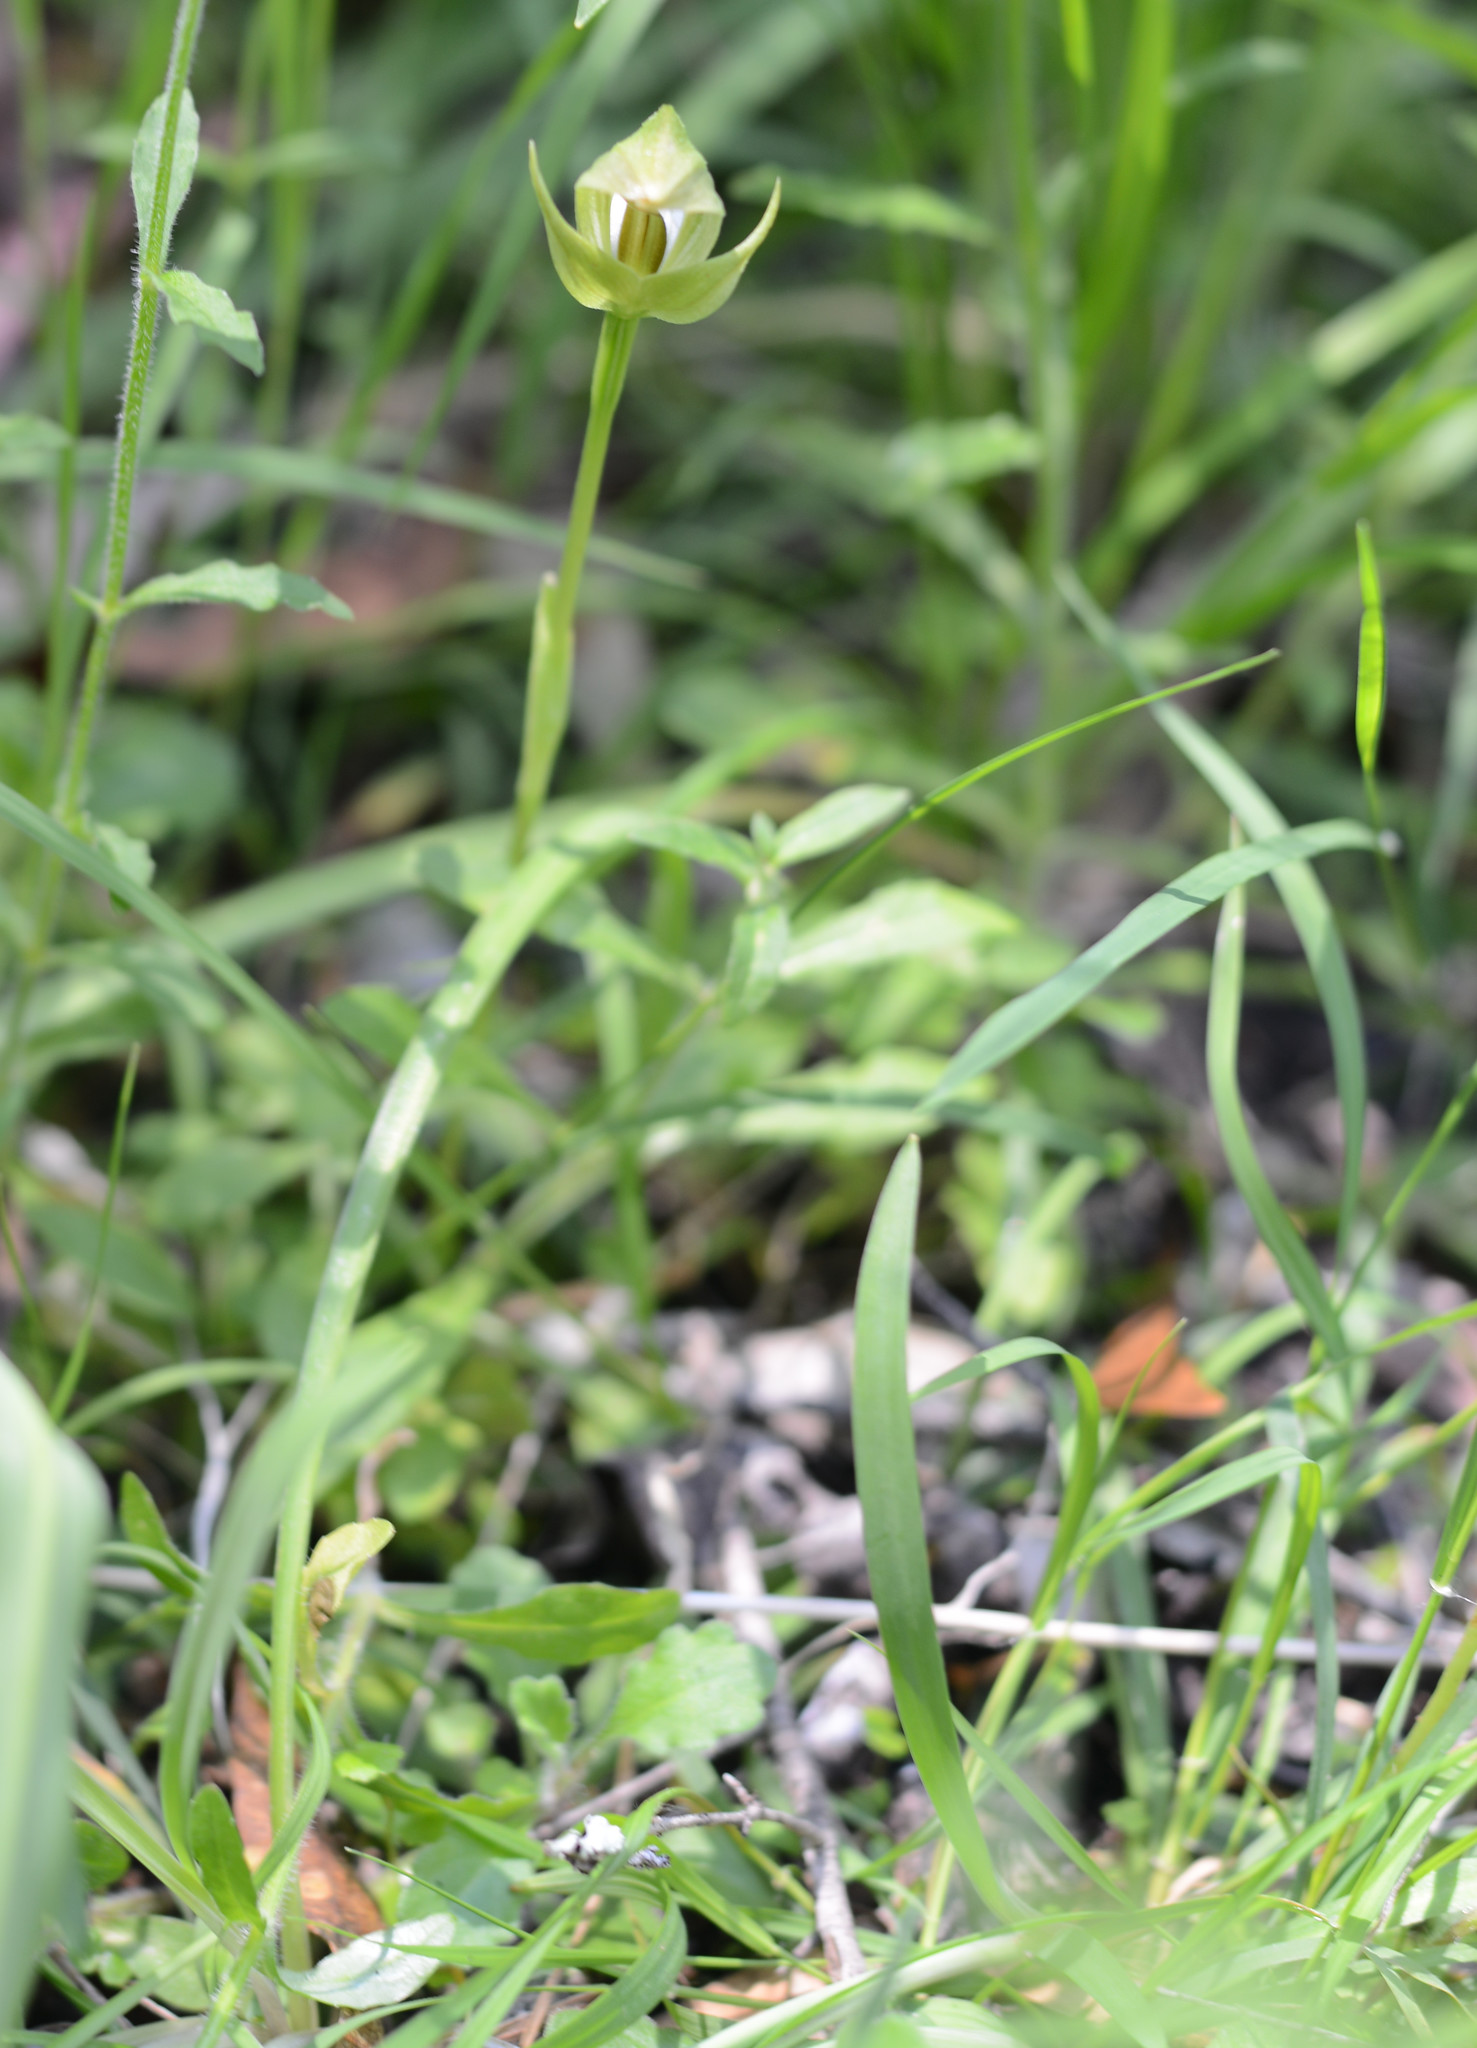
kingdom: Plantae
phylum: Tracheophyta
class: Liliopsida
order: Asparagales
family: Orchidaceae
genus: Pterostylis
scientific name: Pterostylis curta
